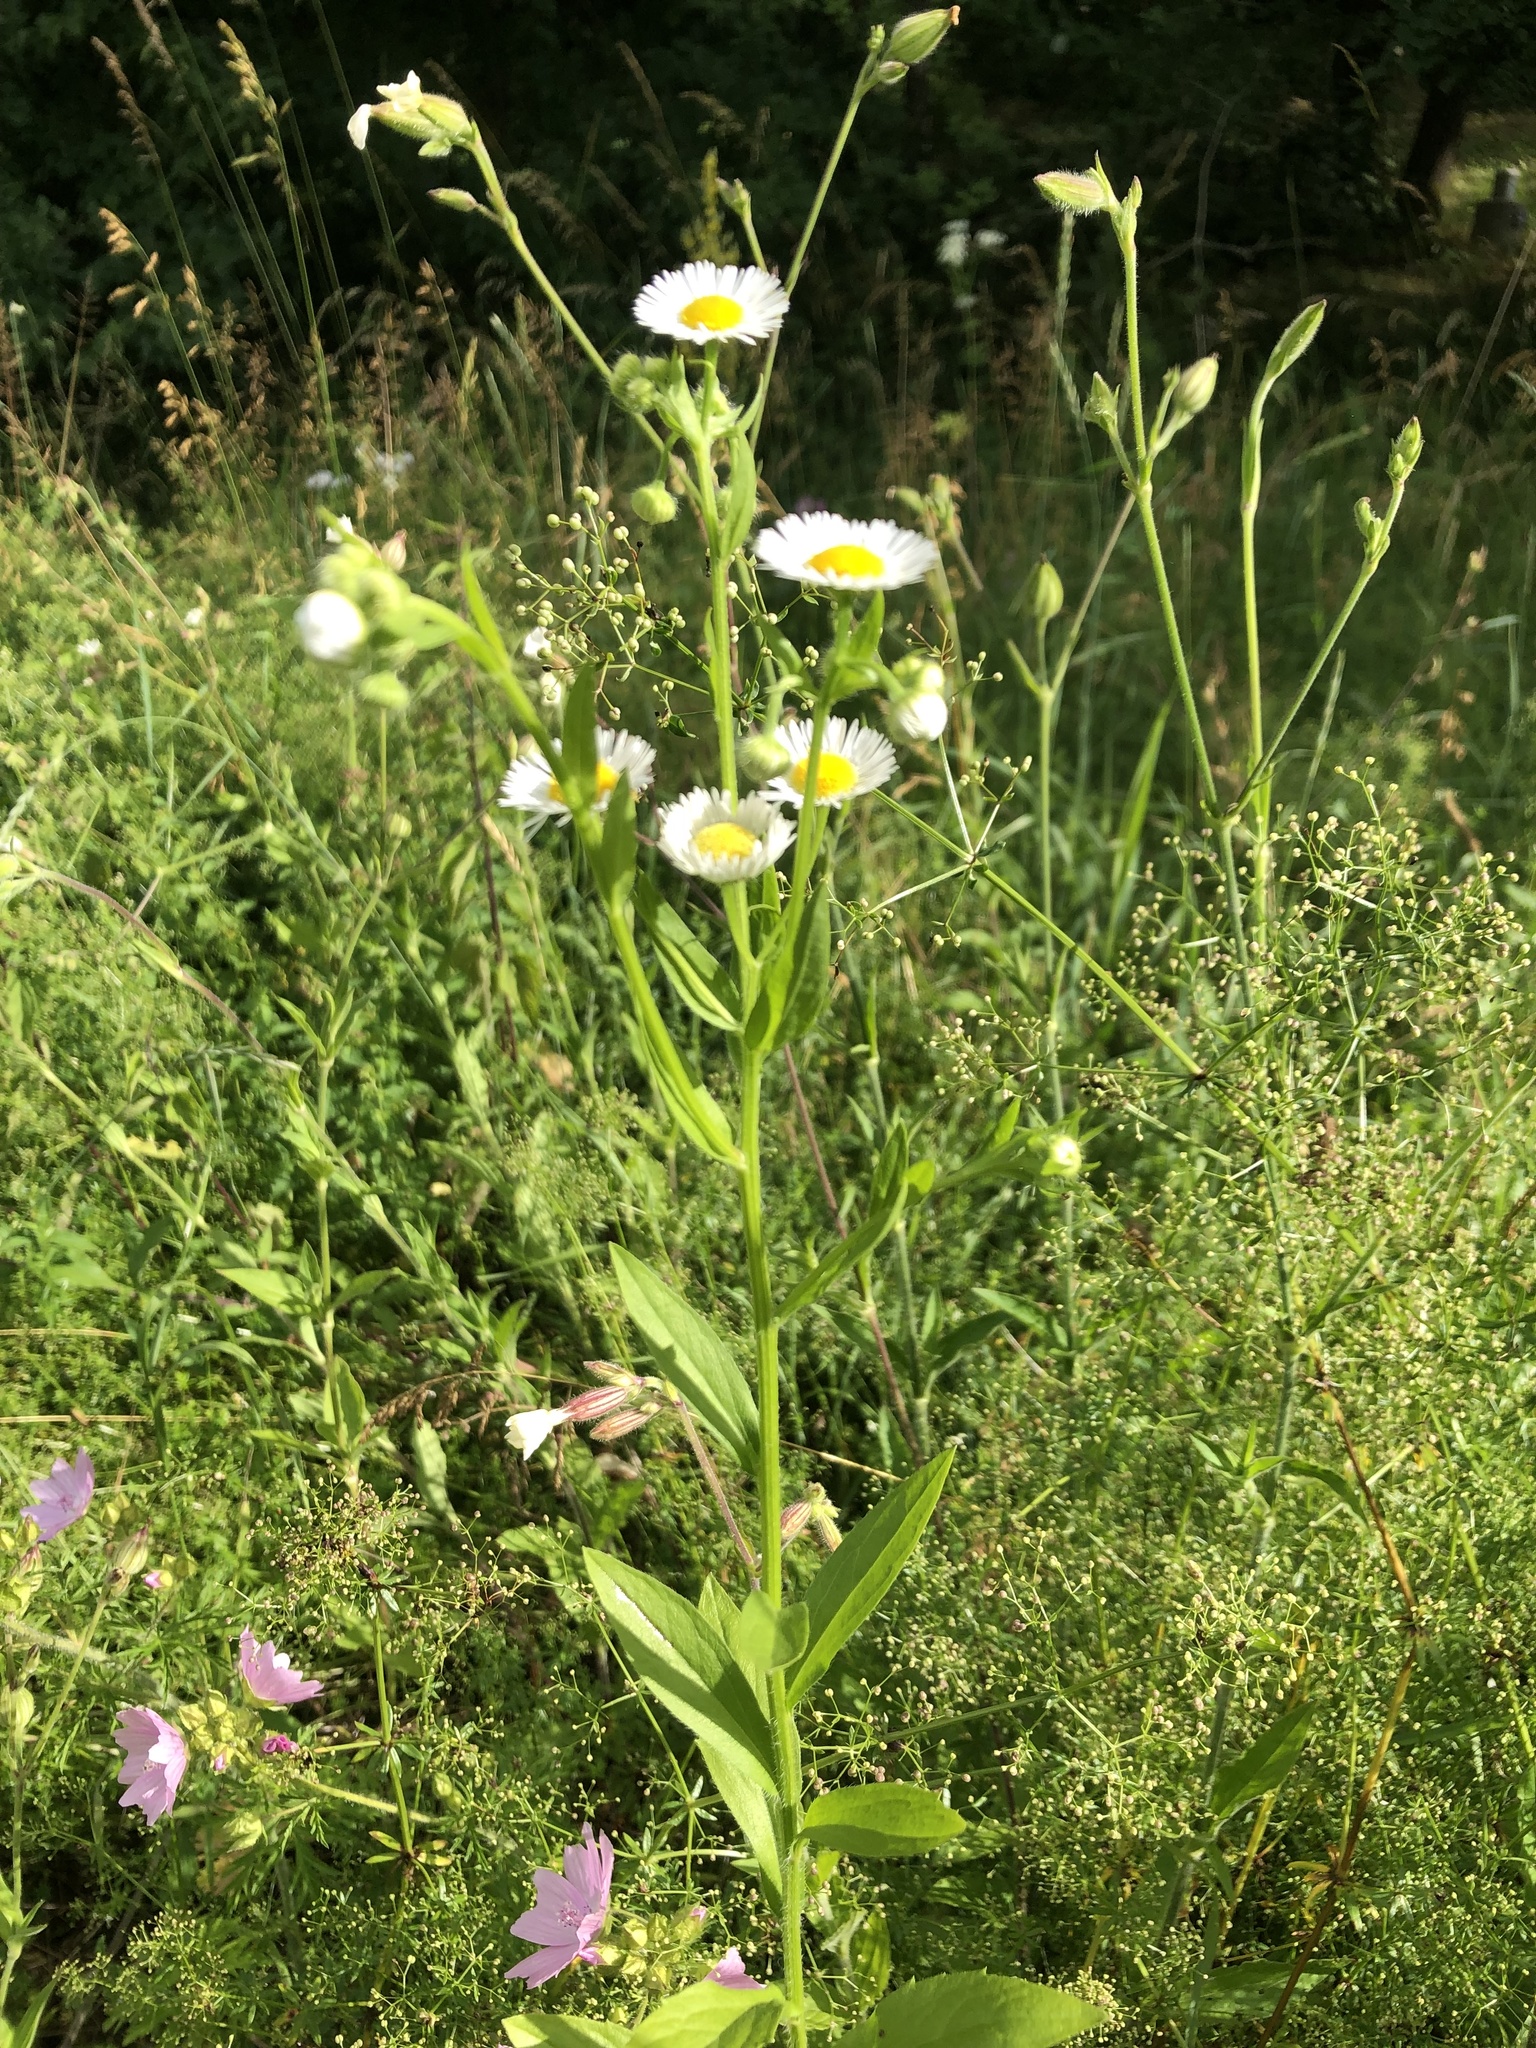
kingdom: Plantae
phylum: Tracheophyta
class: Magnoliopsida
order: Asterales
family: Asteraceae
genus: Erigeron
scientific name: Erigeron annuus
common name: Tall fleabane
